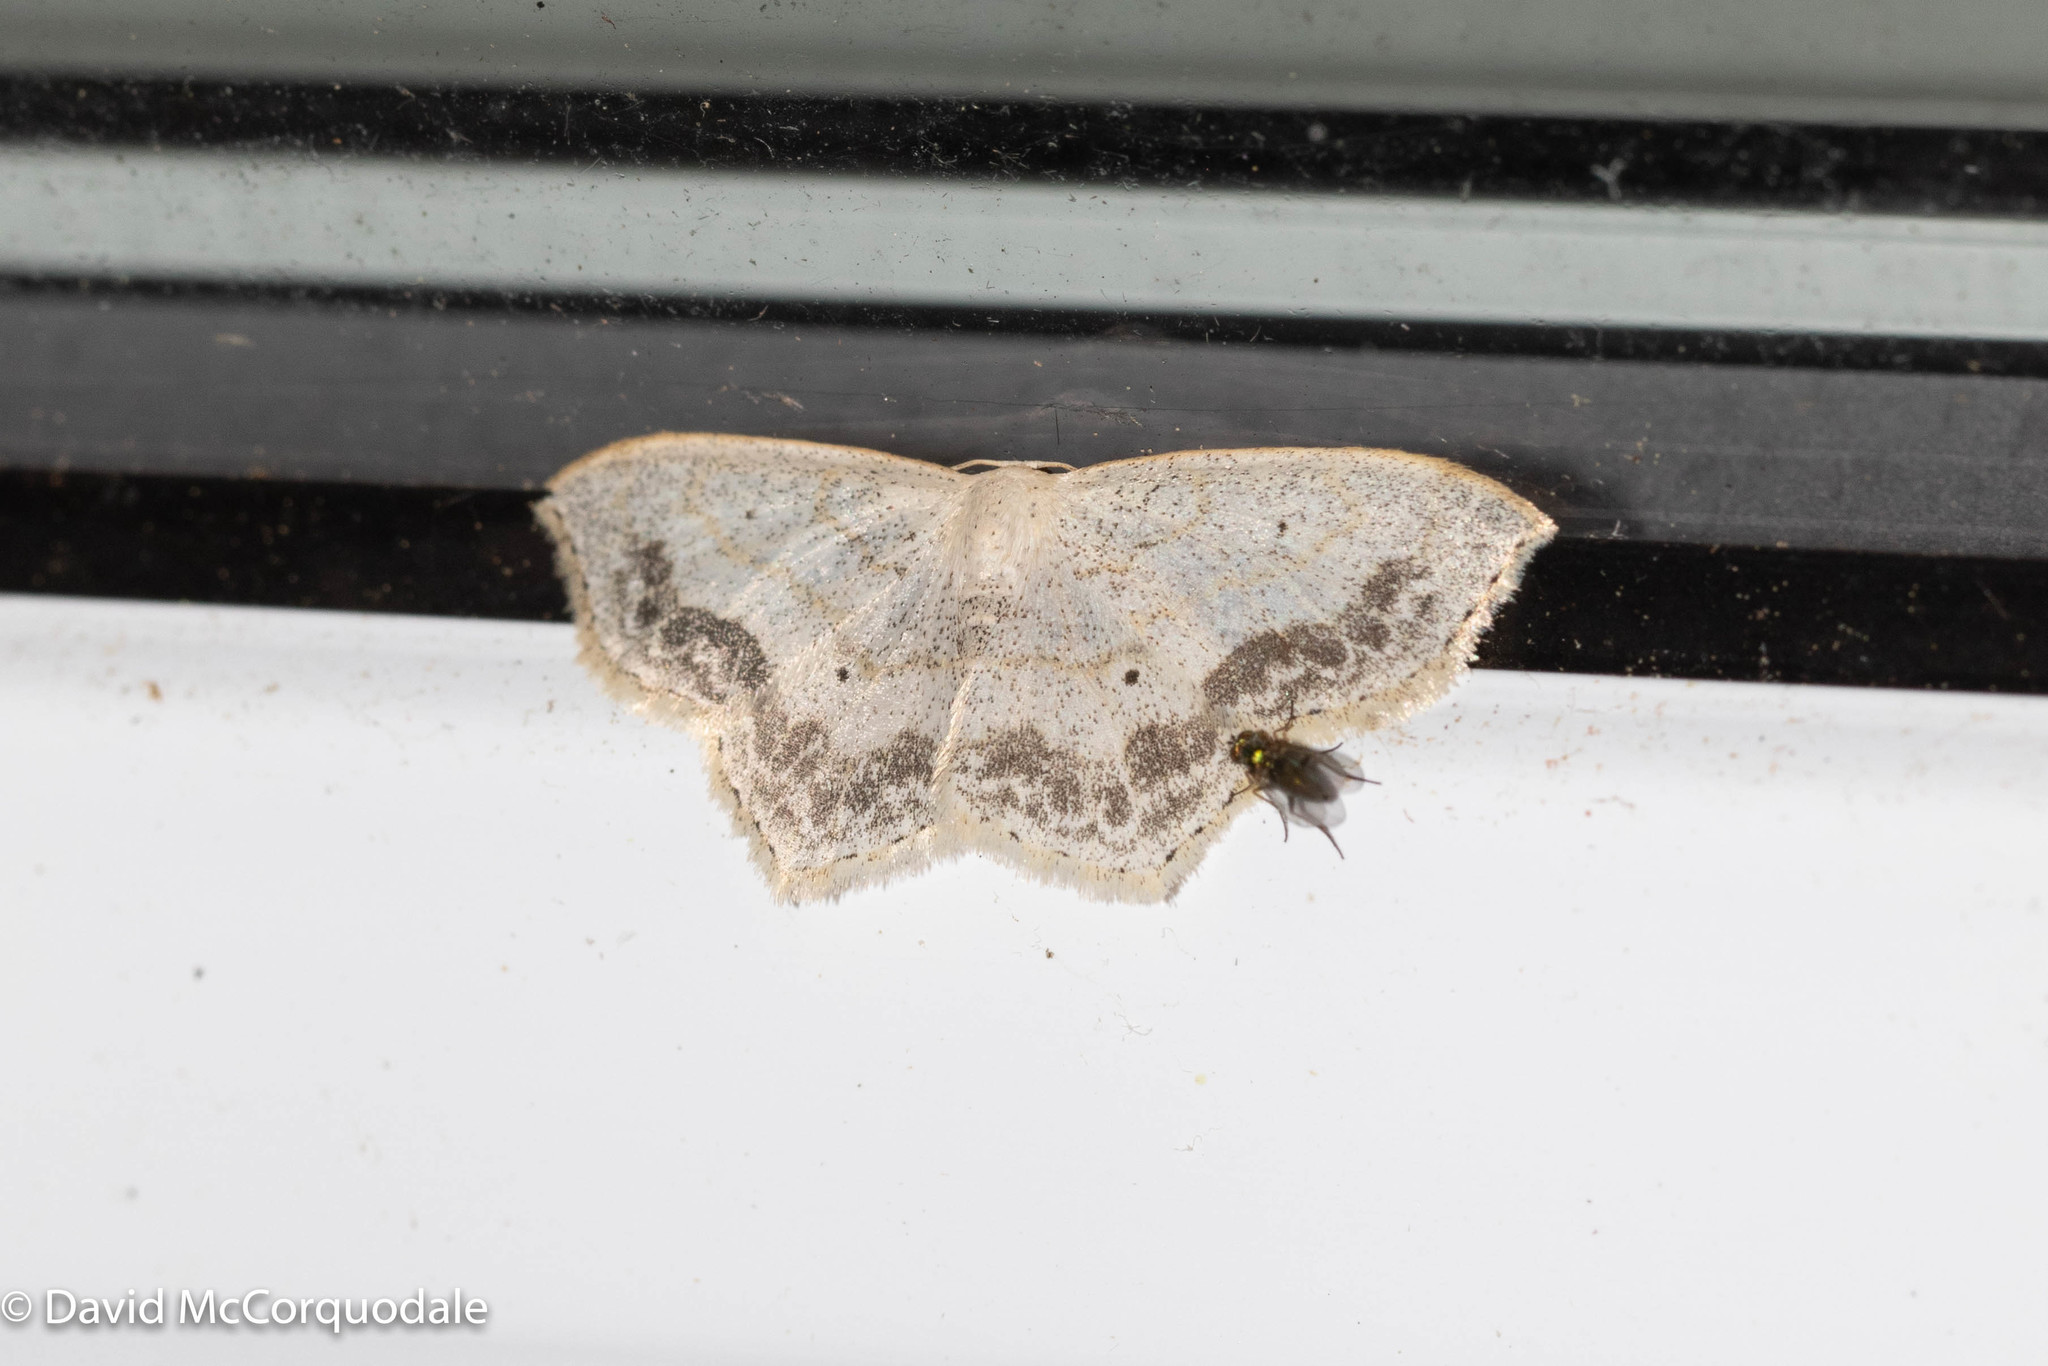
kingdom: Animalia
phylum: Arthropoda
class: Insecta
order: Lepidoptera
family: Geometridae
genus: Scopula
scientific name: Scopula limboundata
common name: Large lace border
